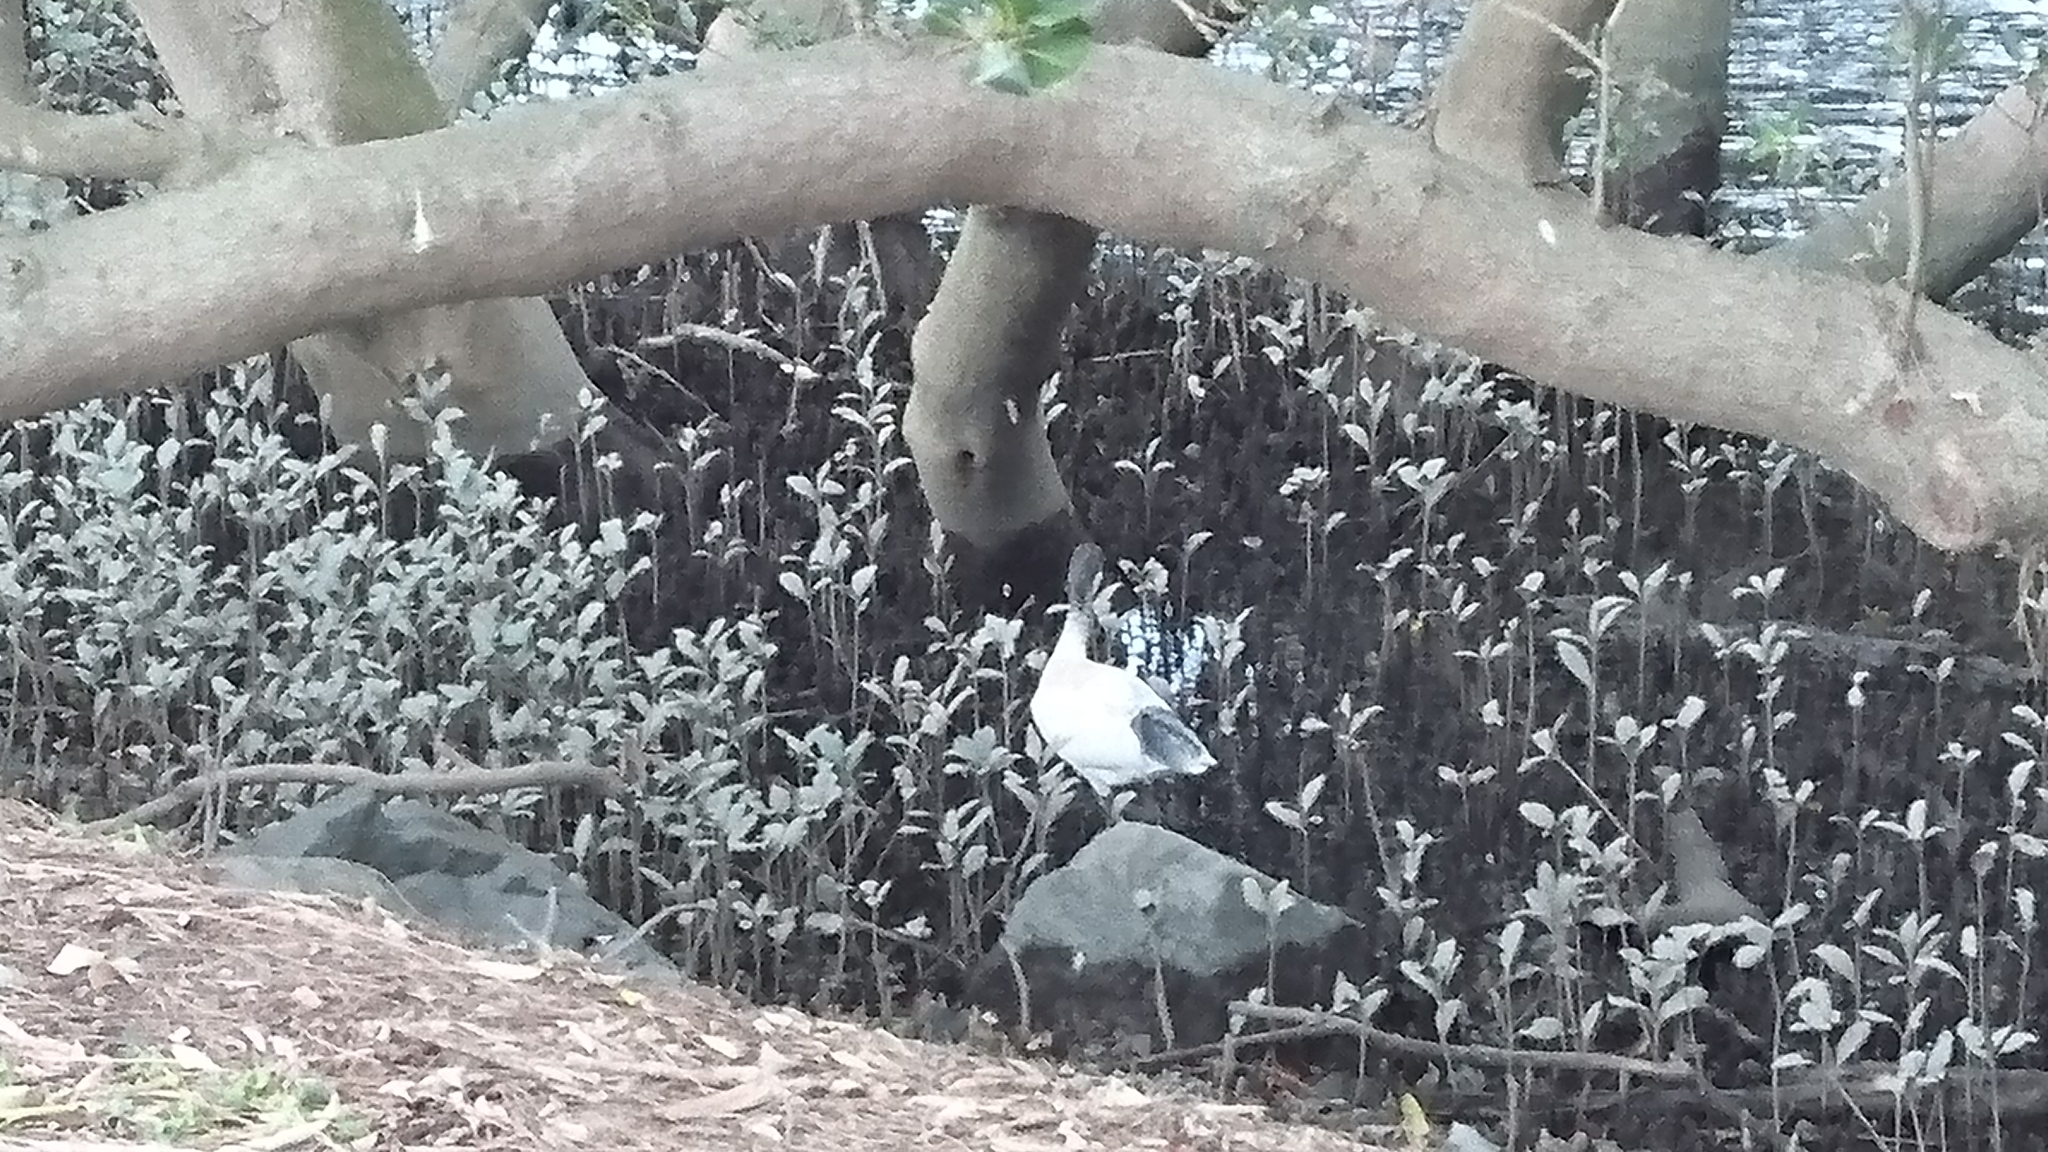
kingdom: Animalia
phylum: Chordata
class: Aves
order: Pelecaniformes
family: Threskiornithidae
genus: Threskiornis
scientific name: Threskiornis molucca
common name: Australian white ibis
